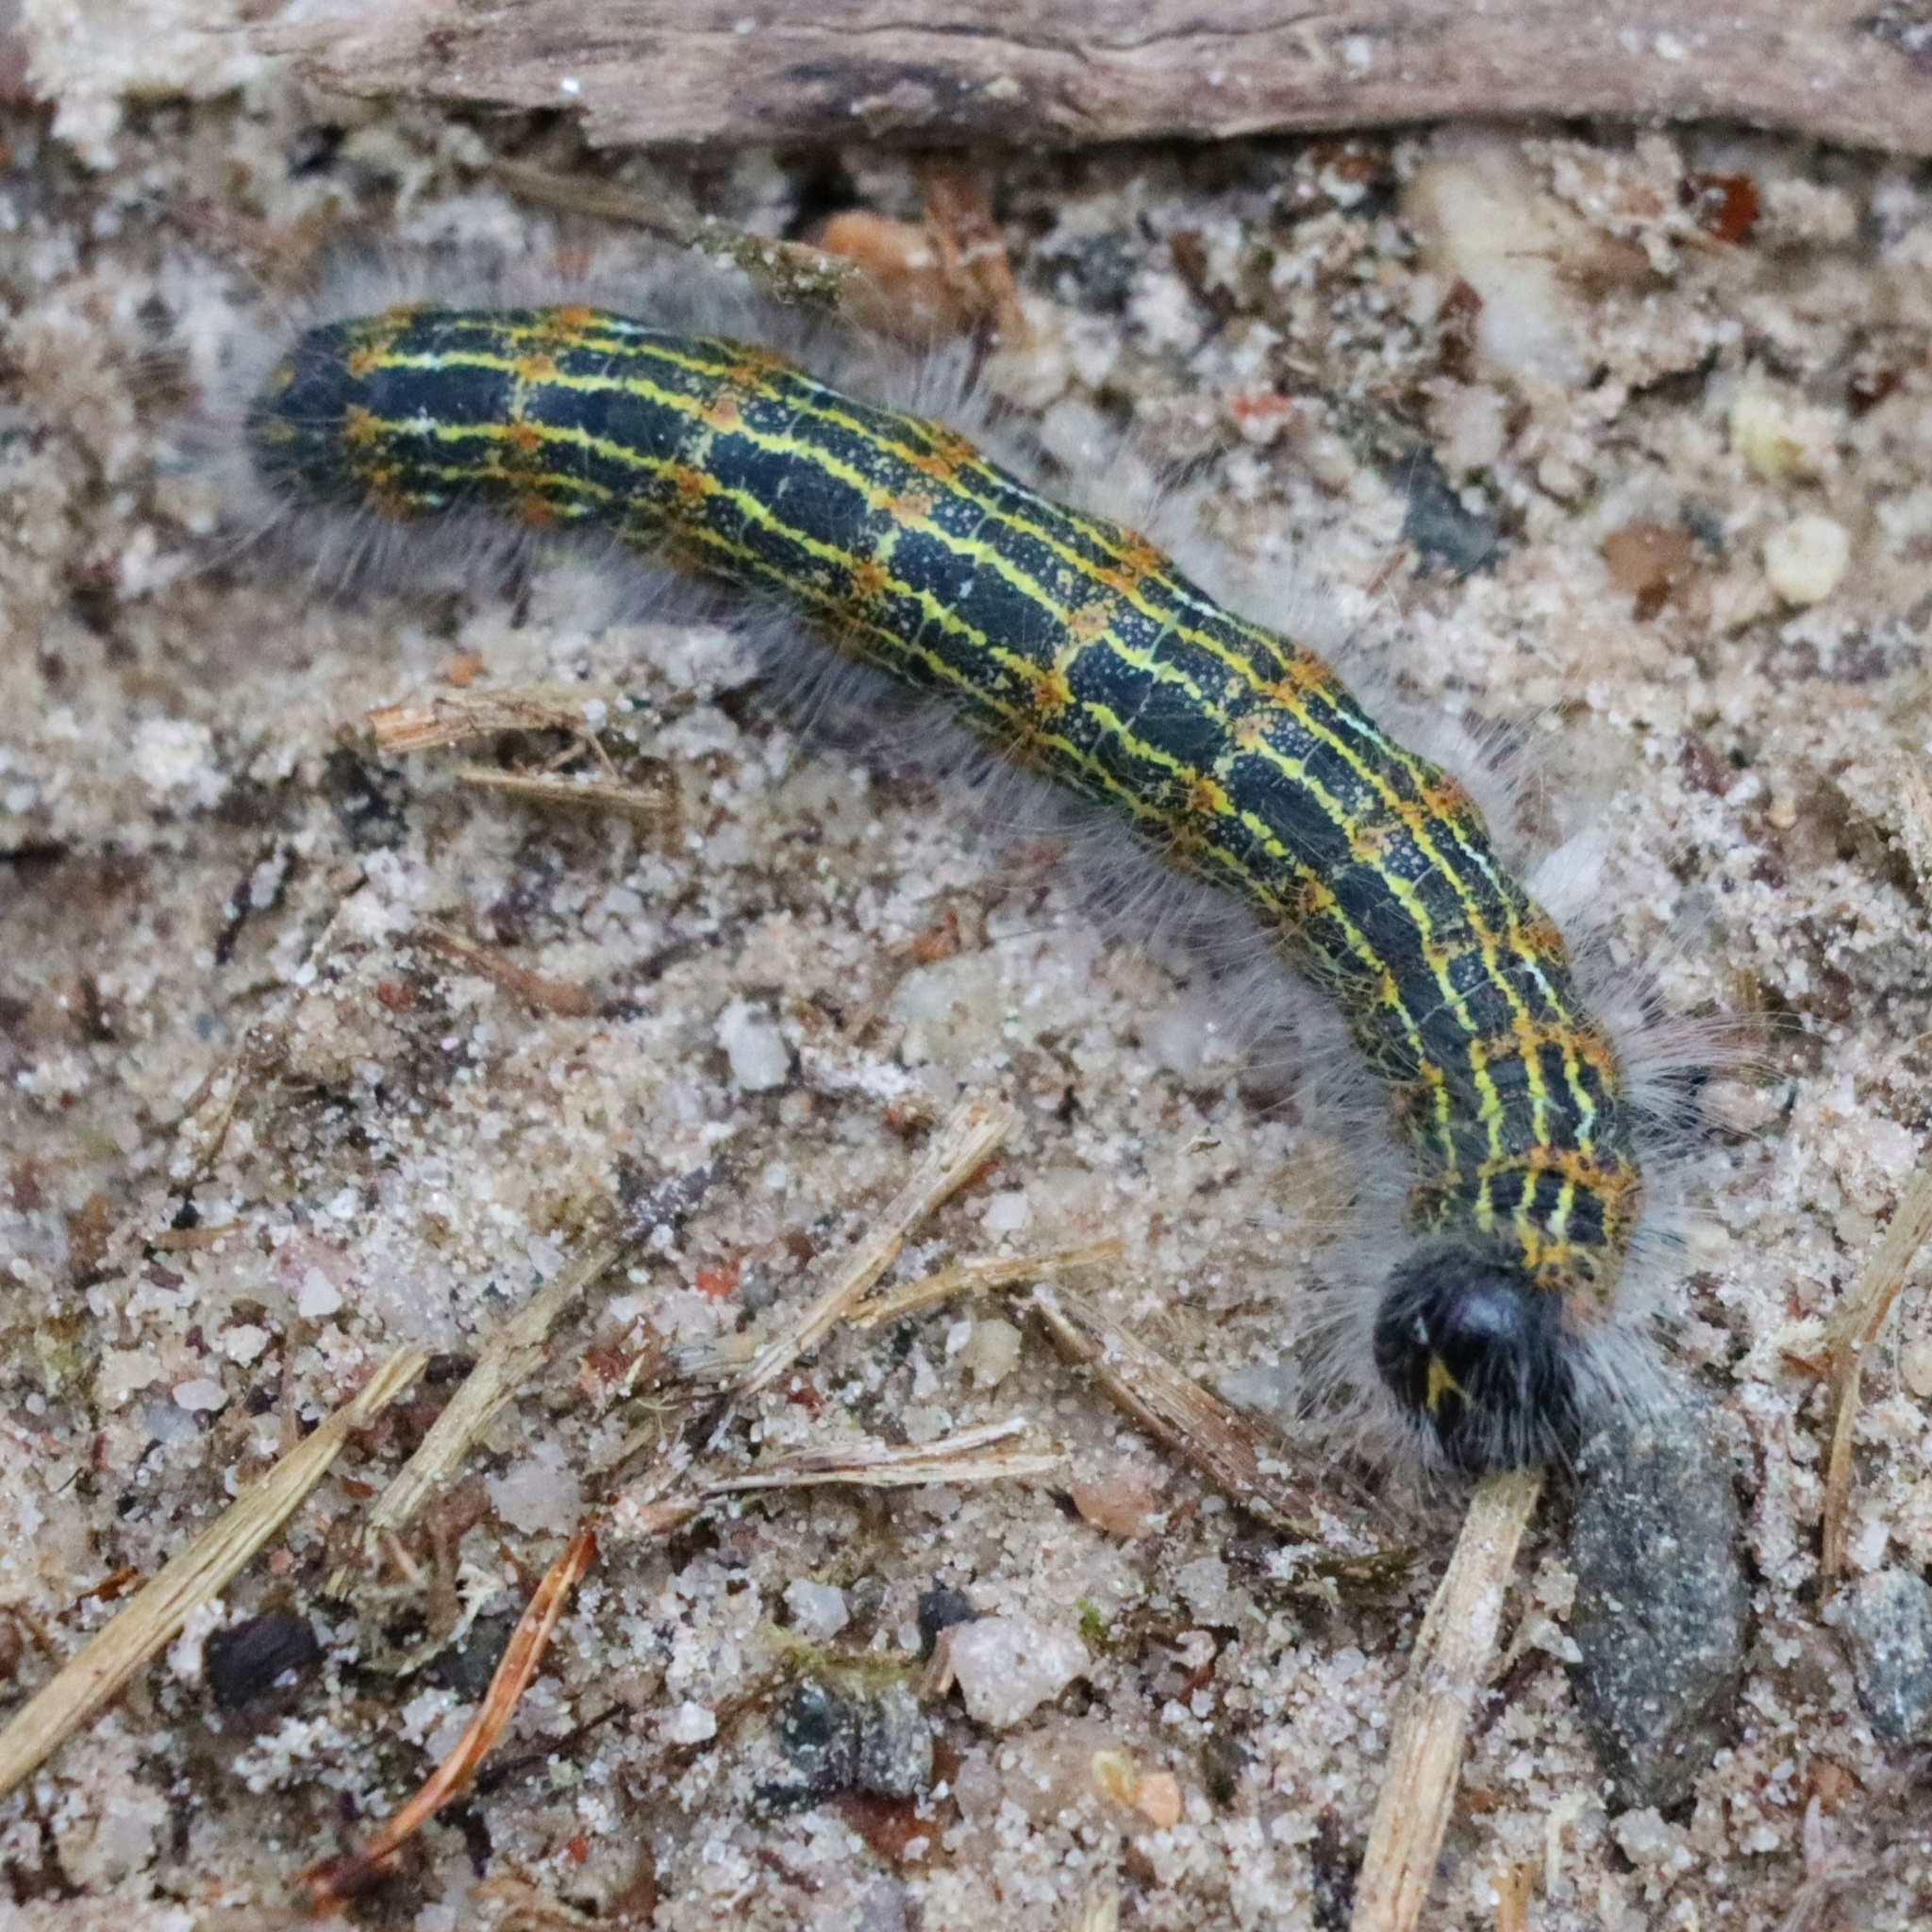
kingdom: Animalia
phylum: Arthropoda
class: Insecta
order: Lepidoptera
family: Notodontidae
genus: Phalera
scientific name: Phalera bucephala
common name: Buff-tip
